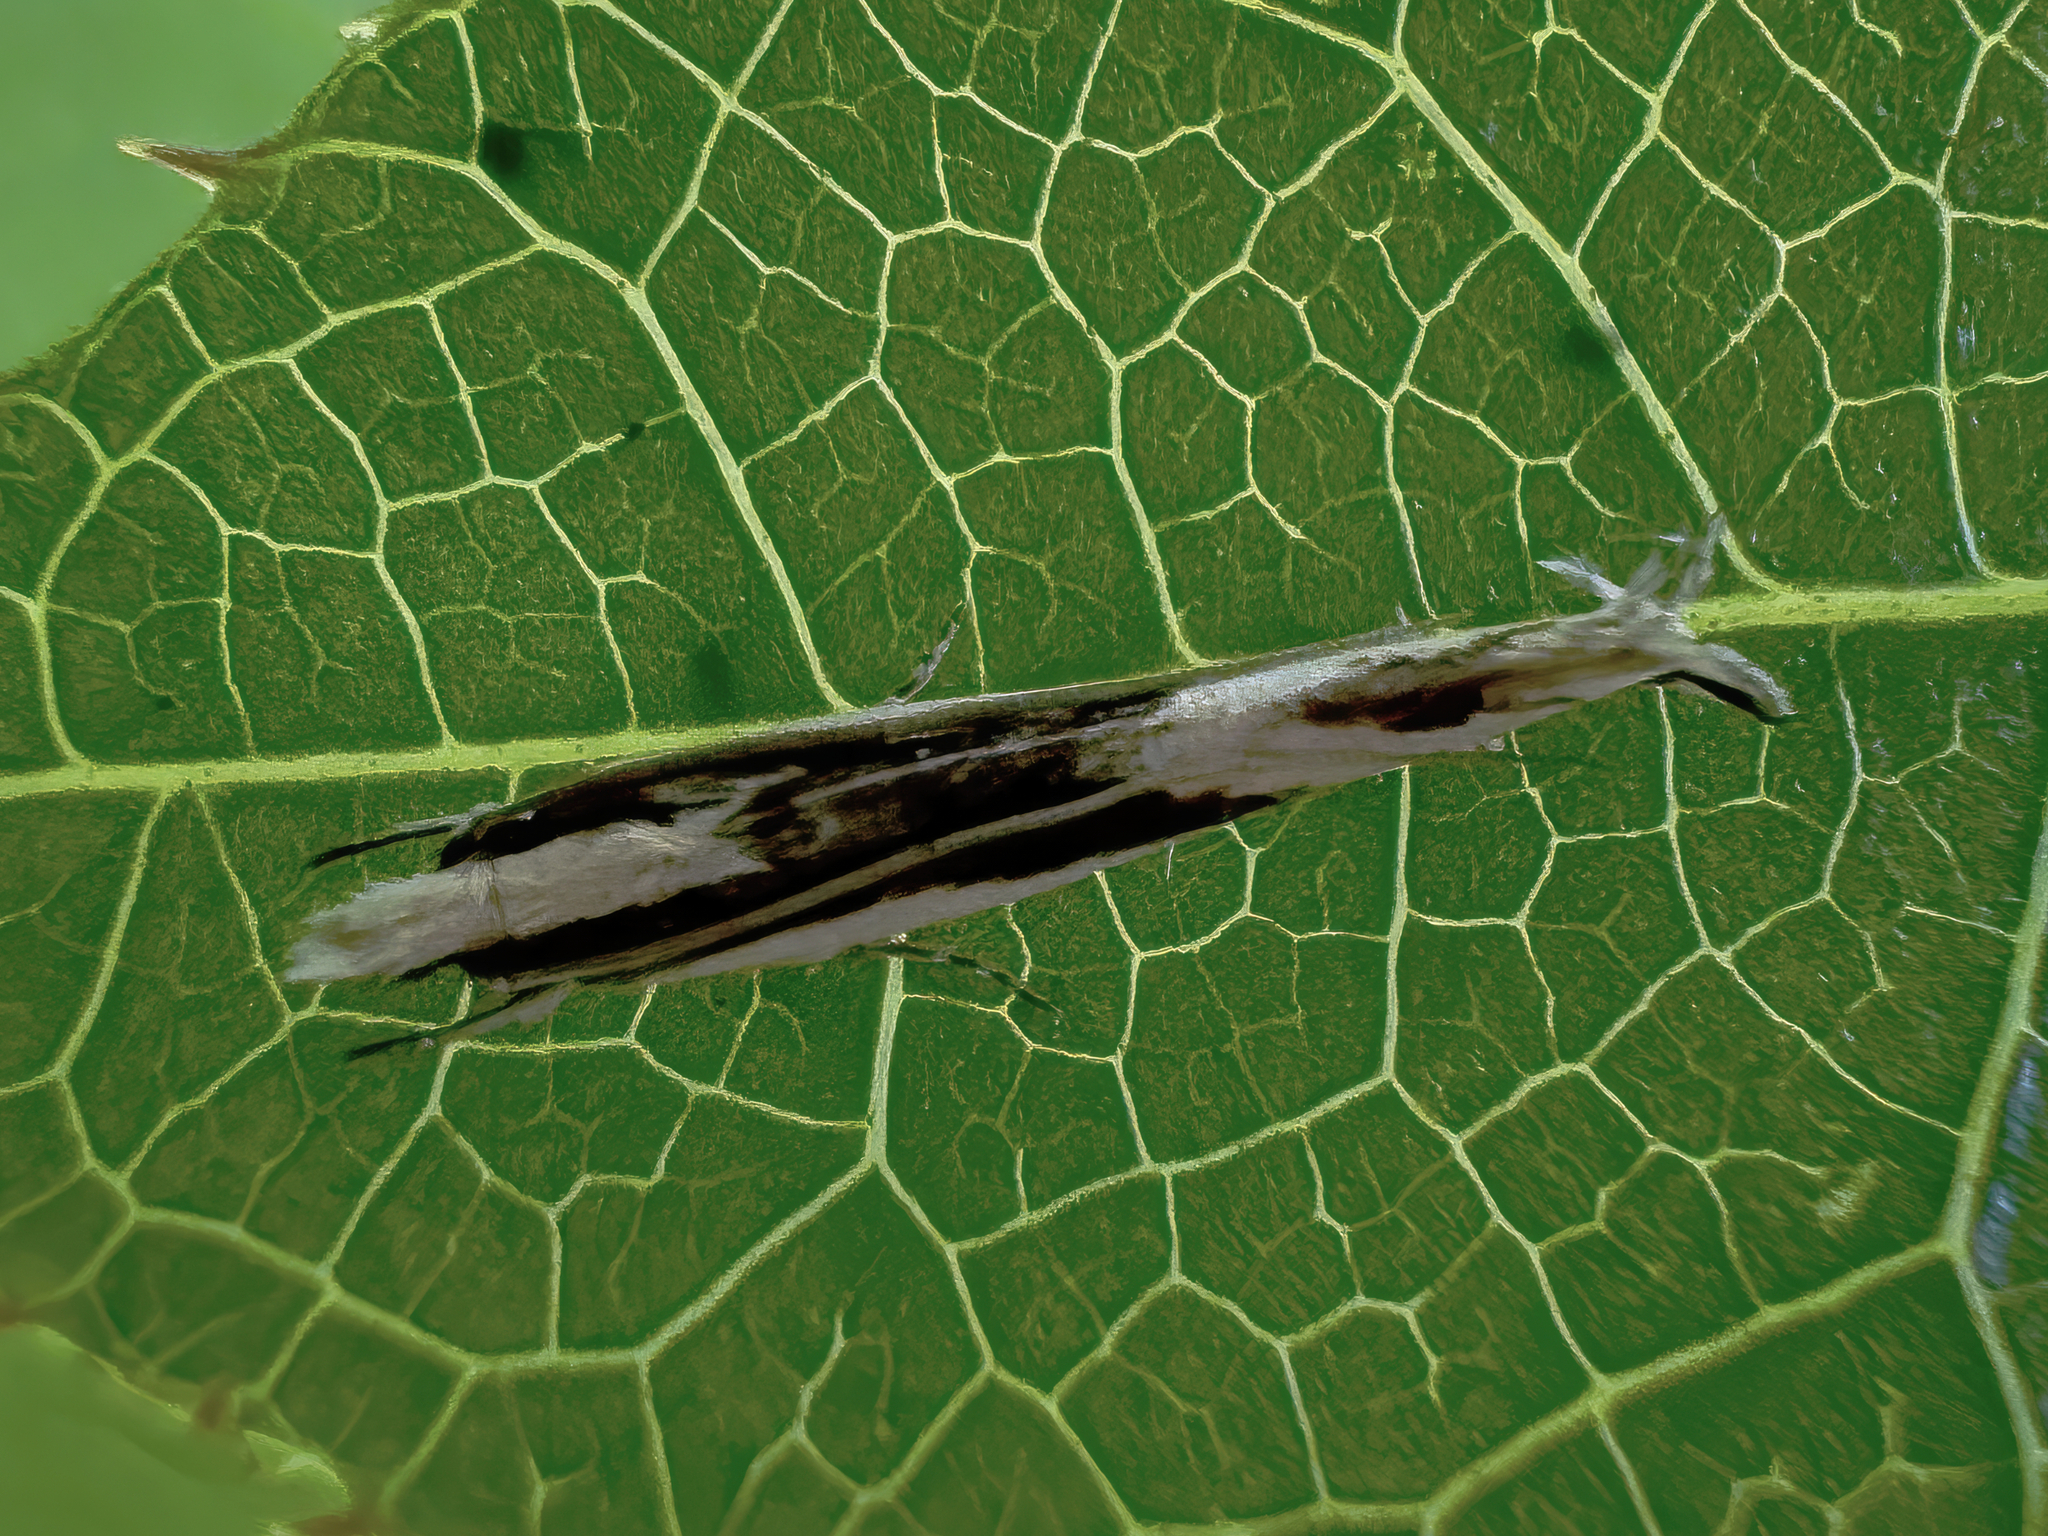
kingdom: Animalia
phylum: Arthropoda
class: Insecta
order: Lepidoptera
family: Tineidae
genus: Erechthias
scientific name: Erechthias chasmatias
